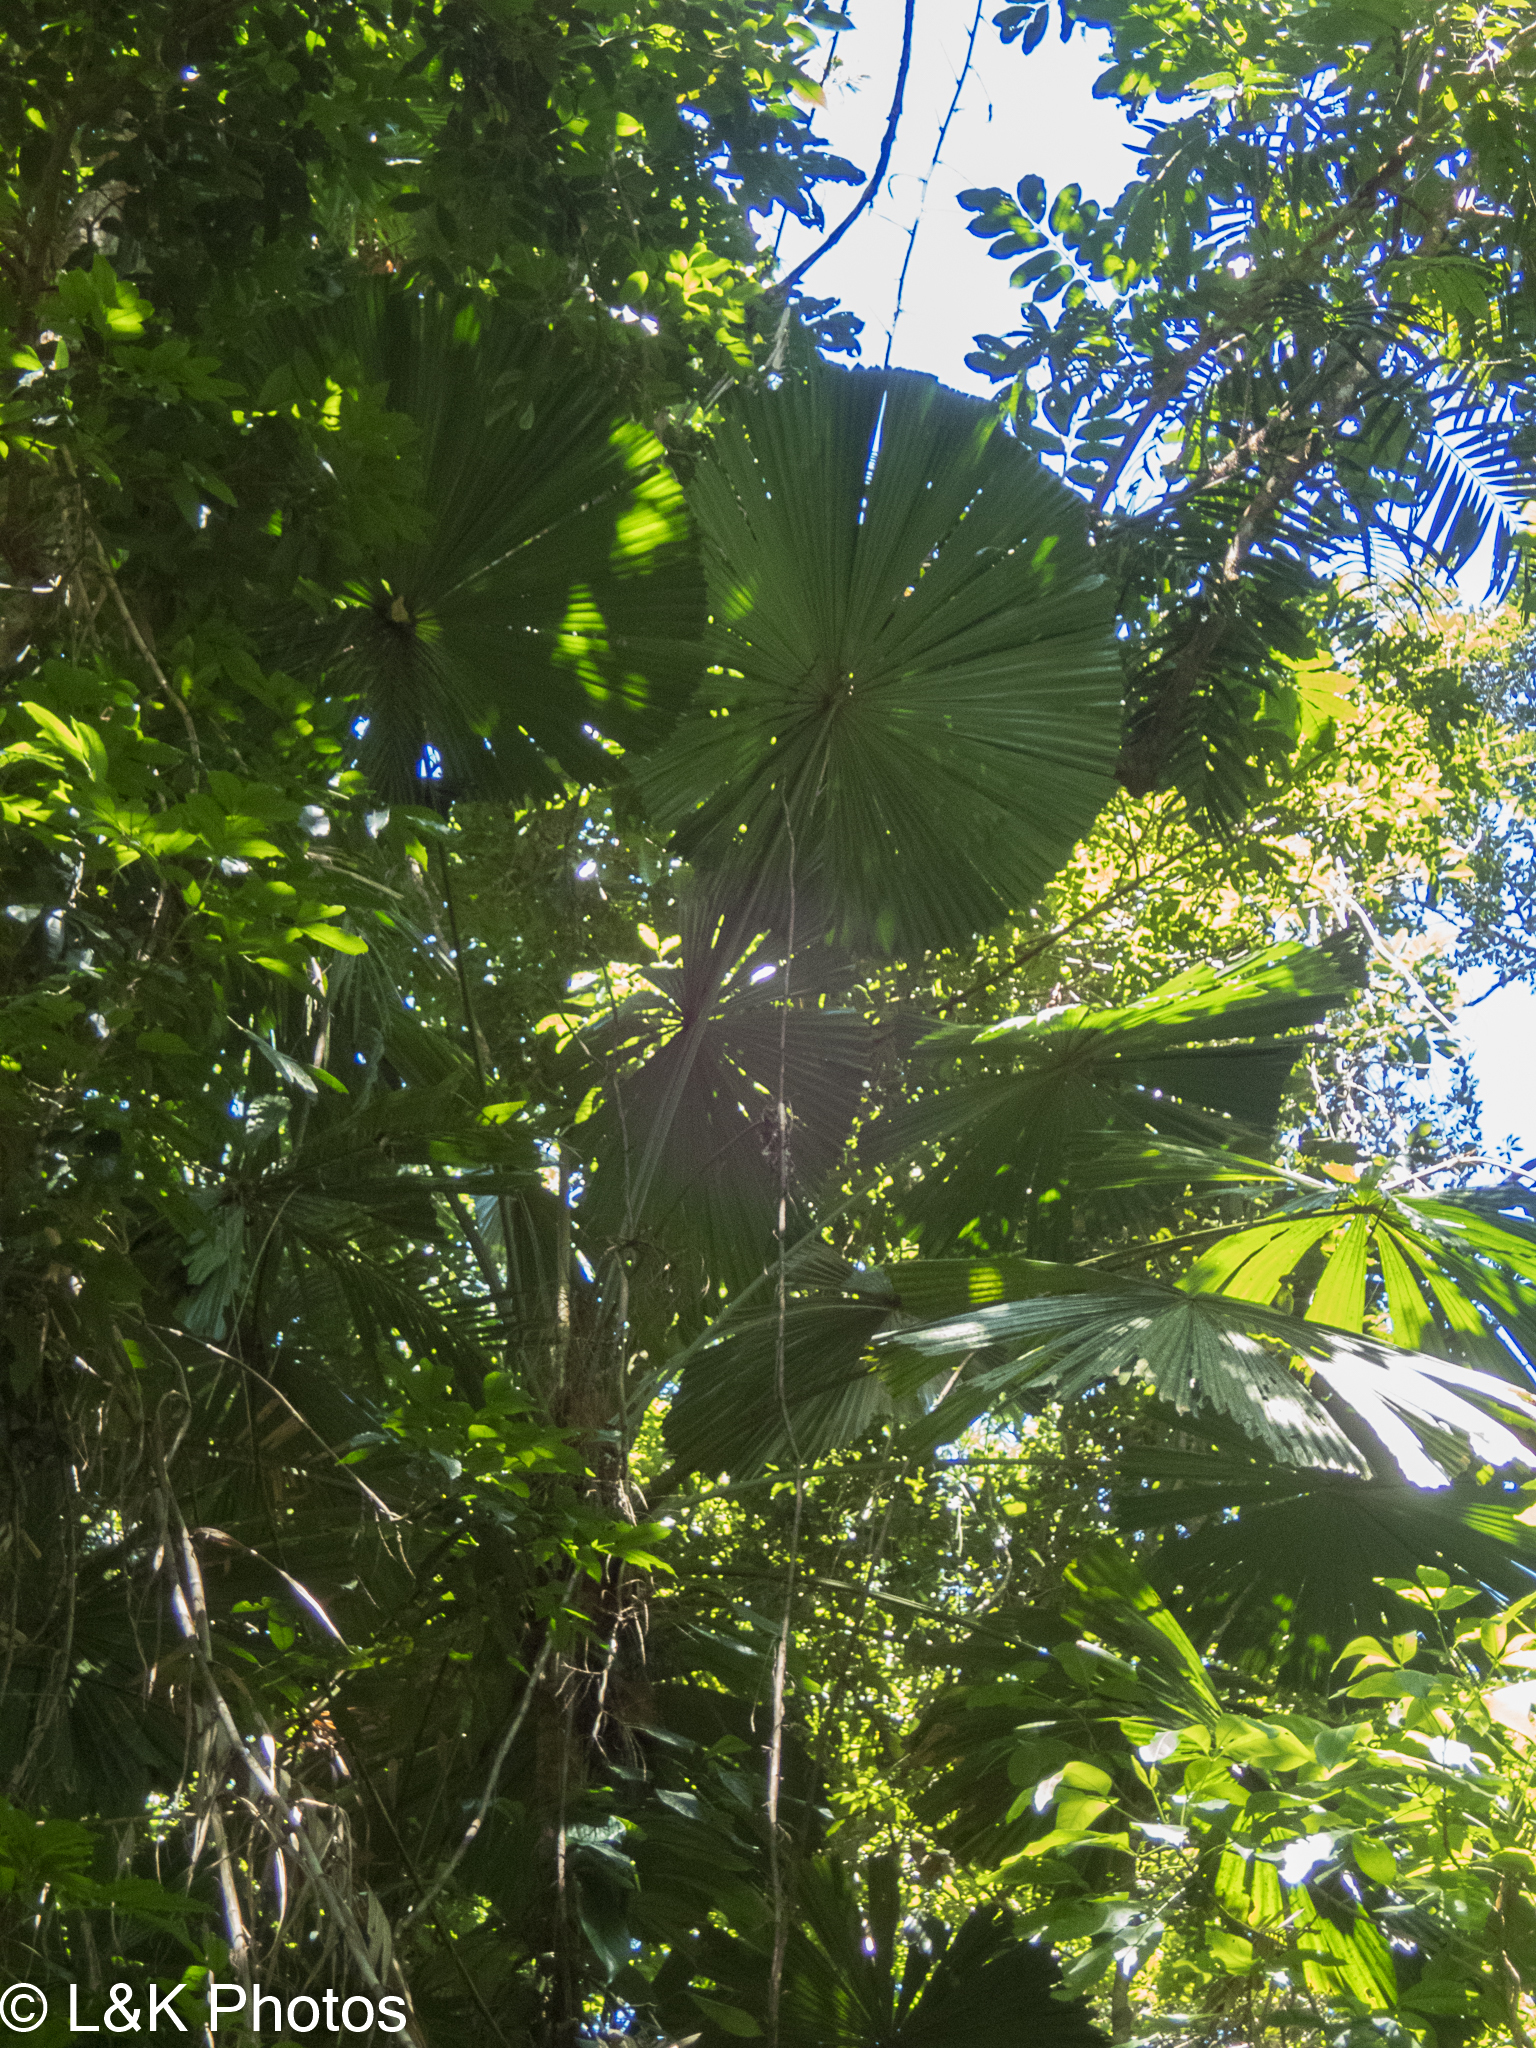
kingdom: Plantae
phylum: Tracheophyta
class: Liliopsida
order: Arecales
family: Arecaceae
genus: Licuala
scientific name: Licuala ramsayi
